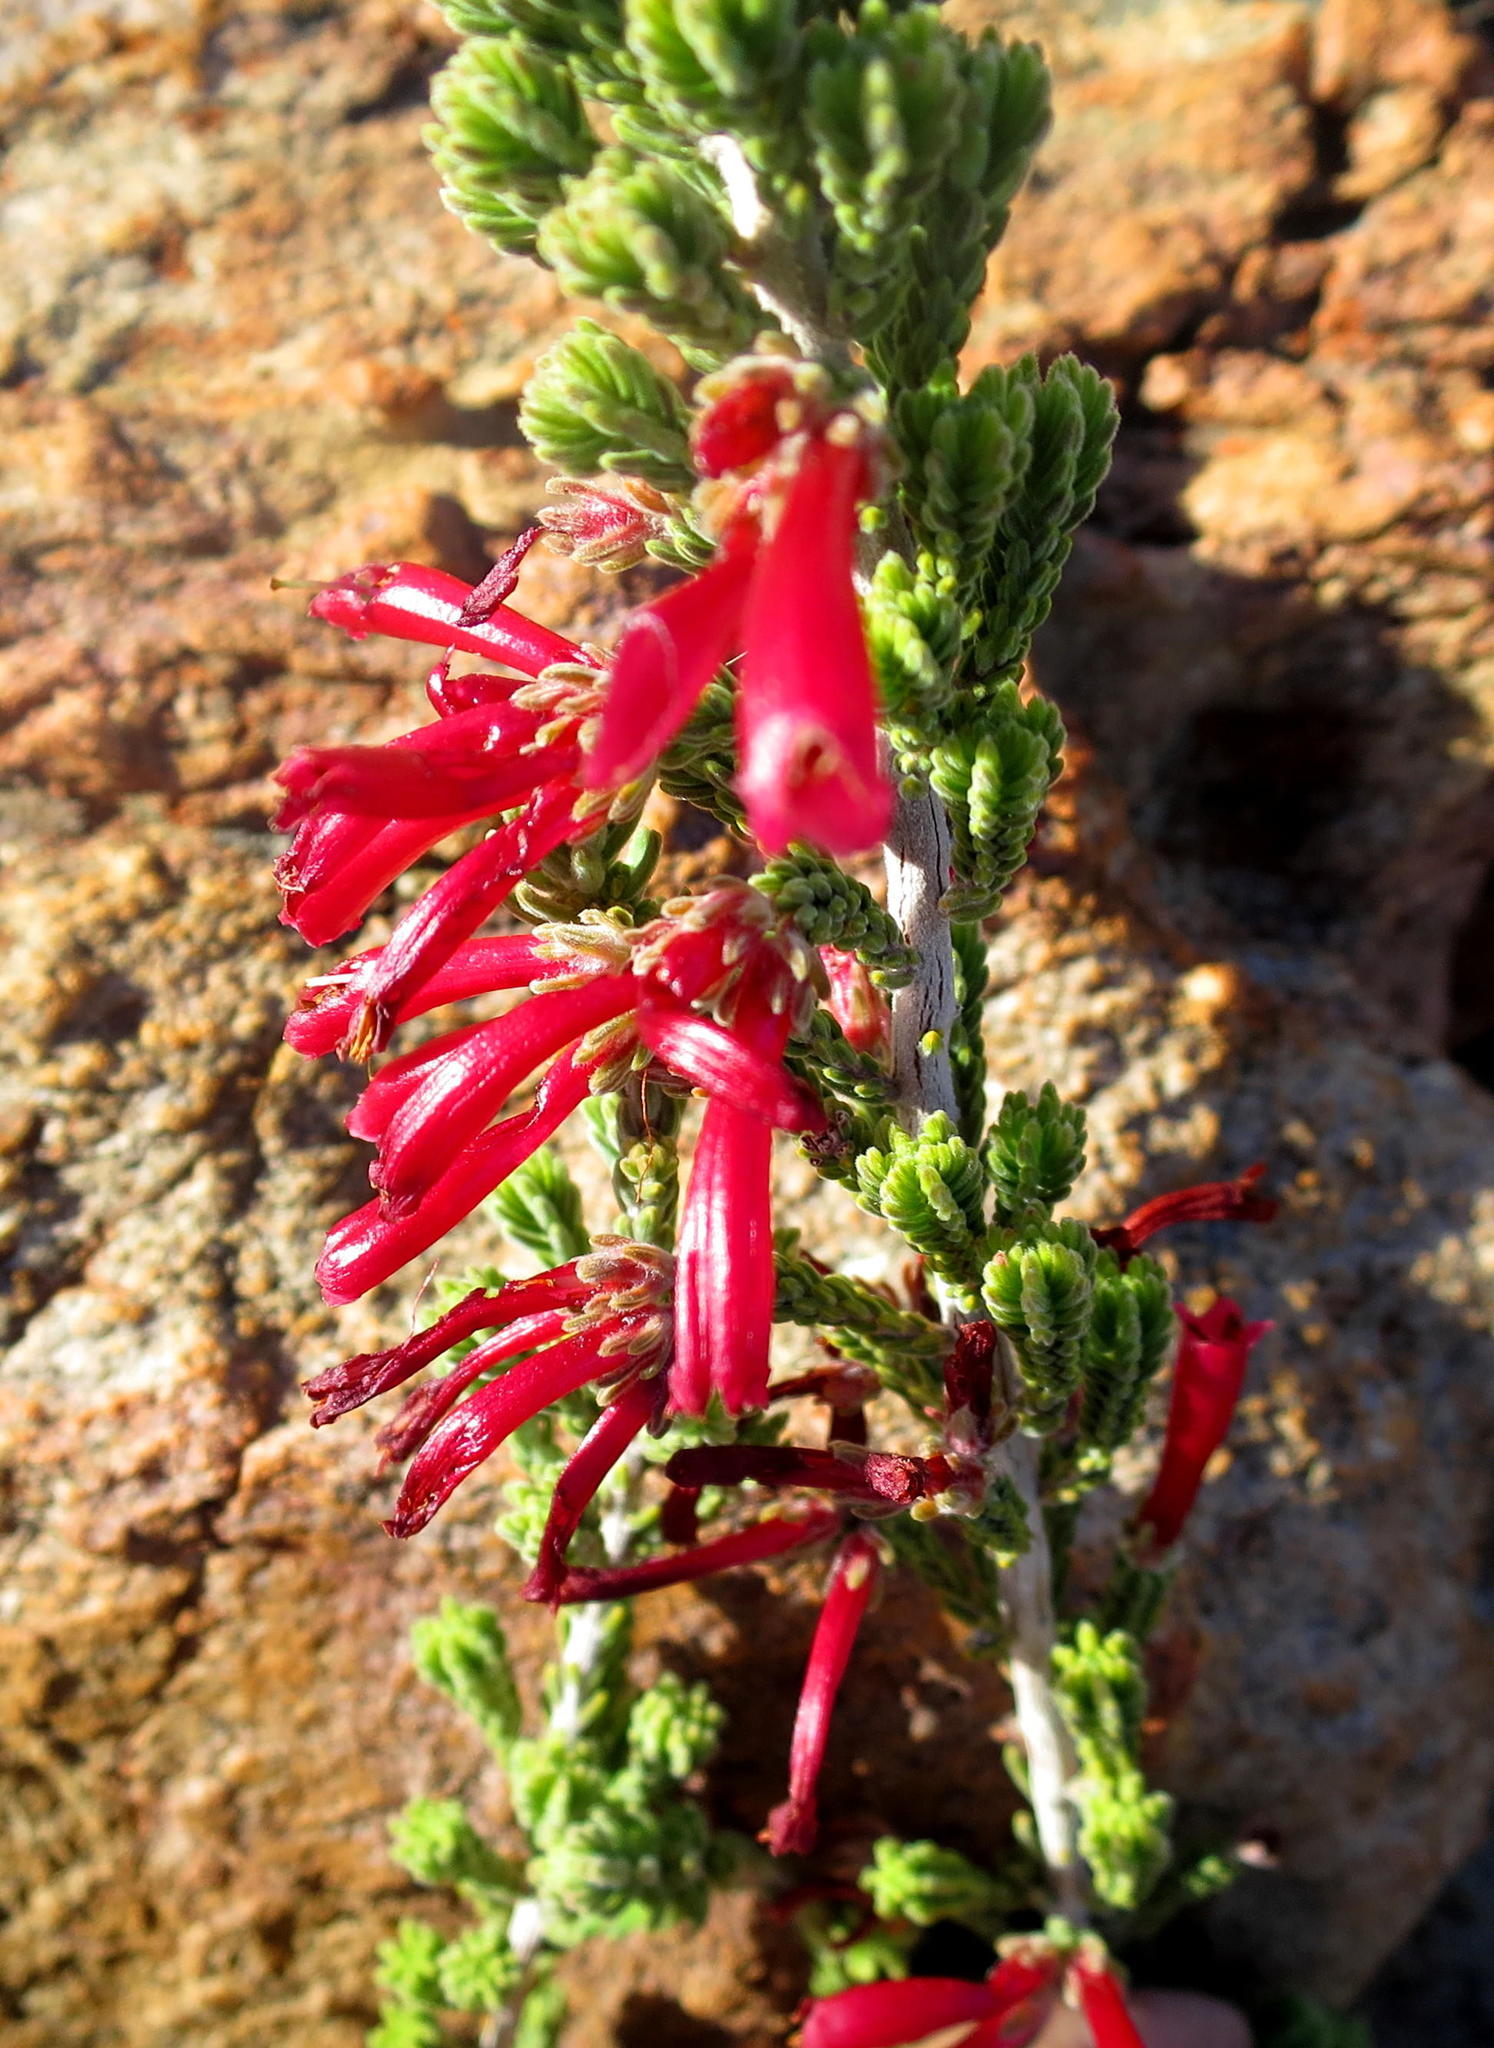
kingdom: Plantae
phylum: Tracheophyta
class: Magnoliopsida
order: Ericales
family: Ericaceae
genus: Erica
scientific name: Erica discolor
